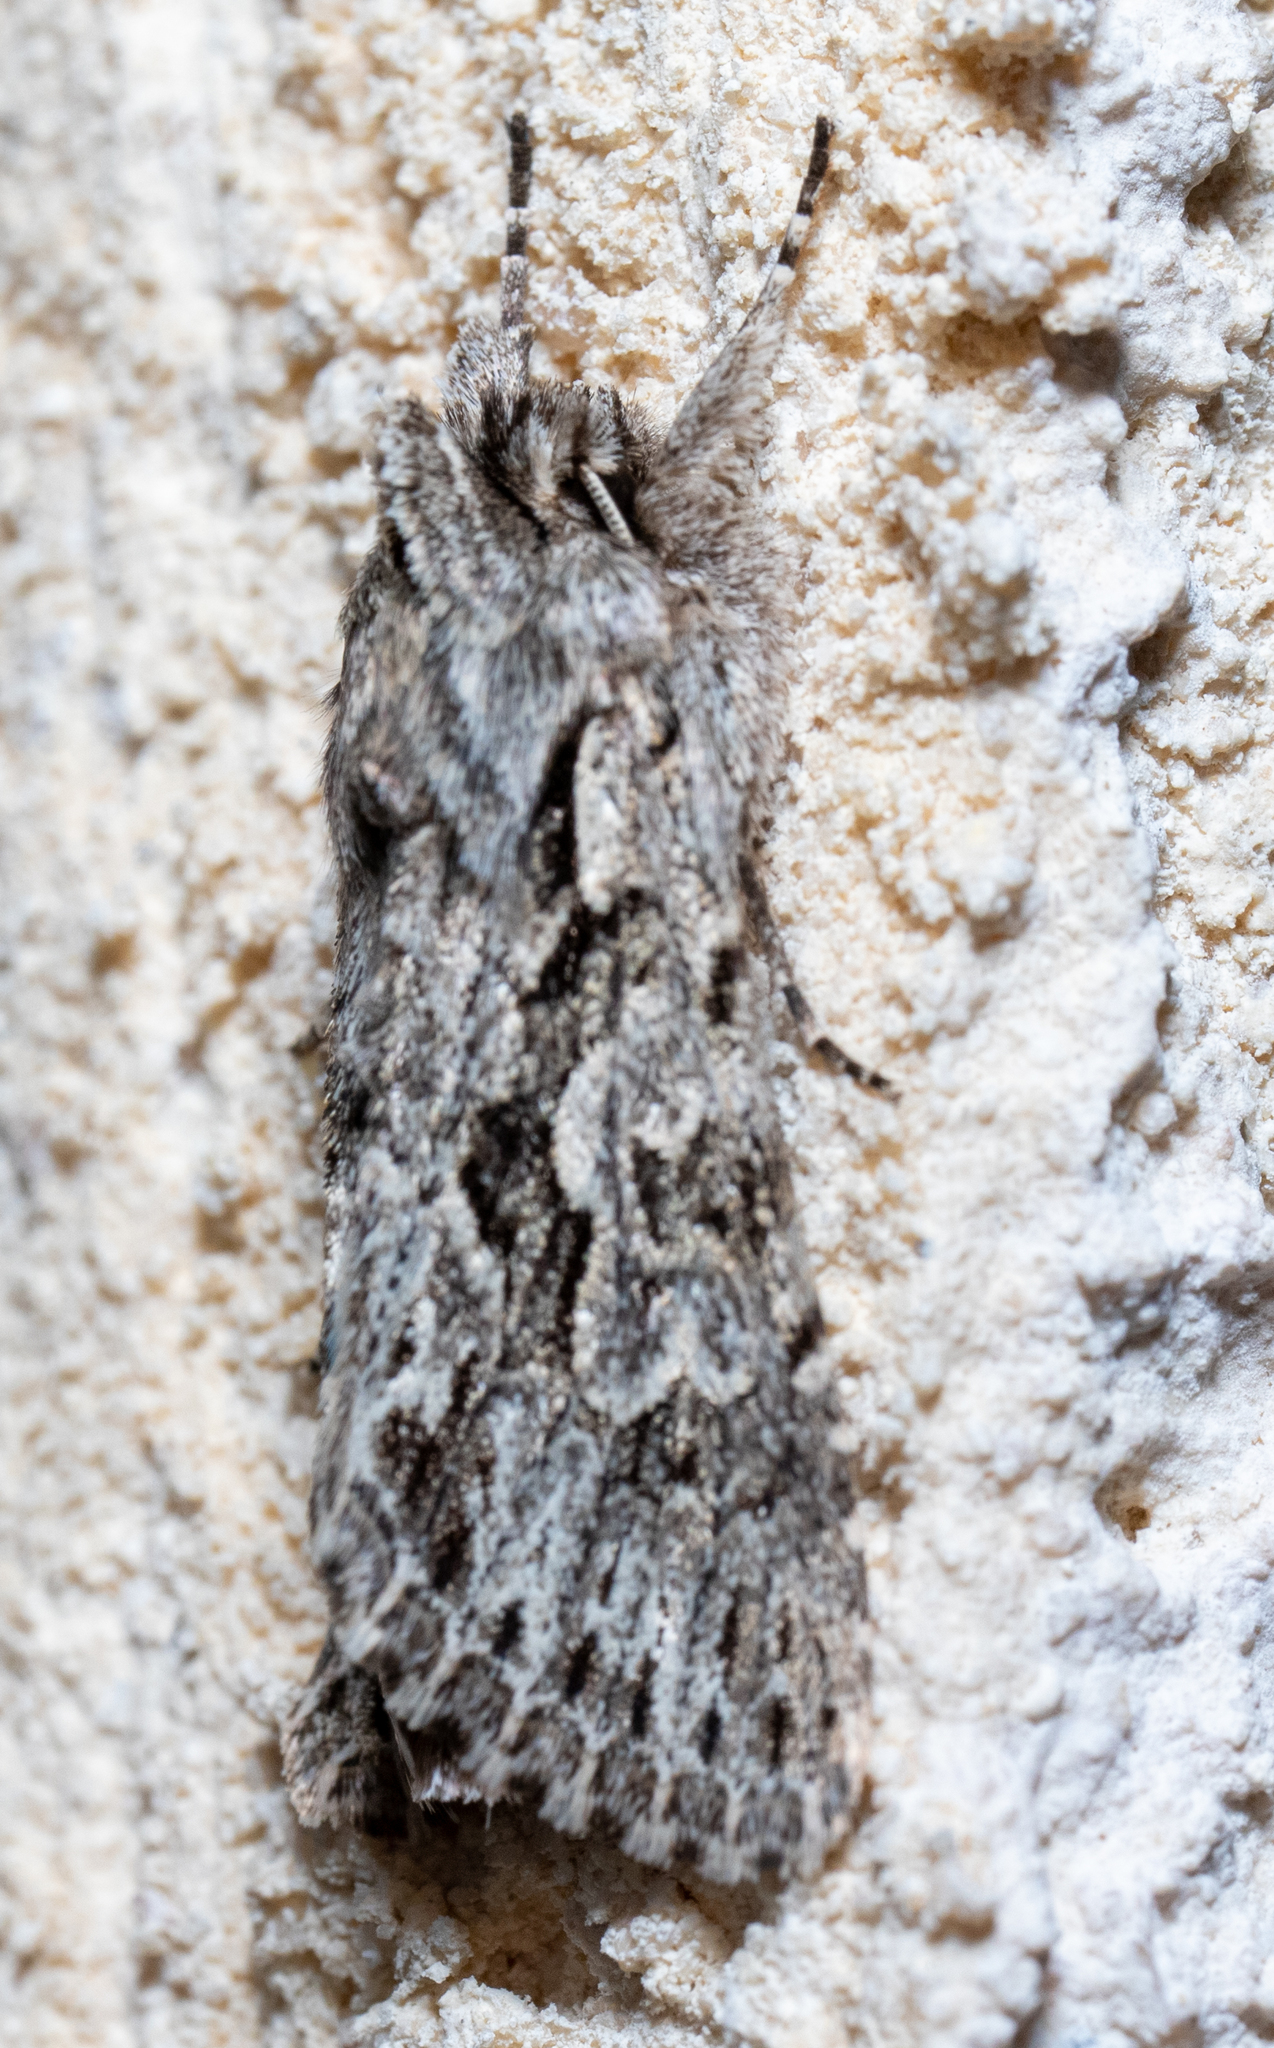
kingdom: Animalia
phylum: Arthropoda
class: Insecta
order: Lepidoptera
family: Noctuidae
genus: Xylocampa
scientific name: Xylocampa areola
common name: Early grey
